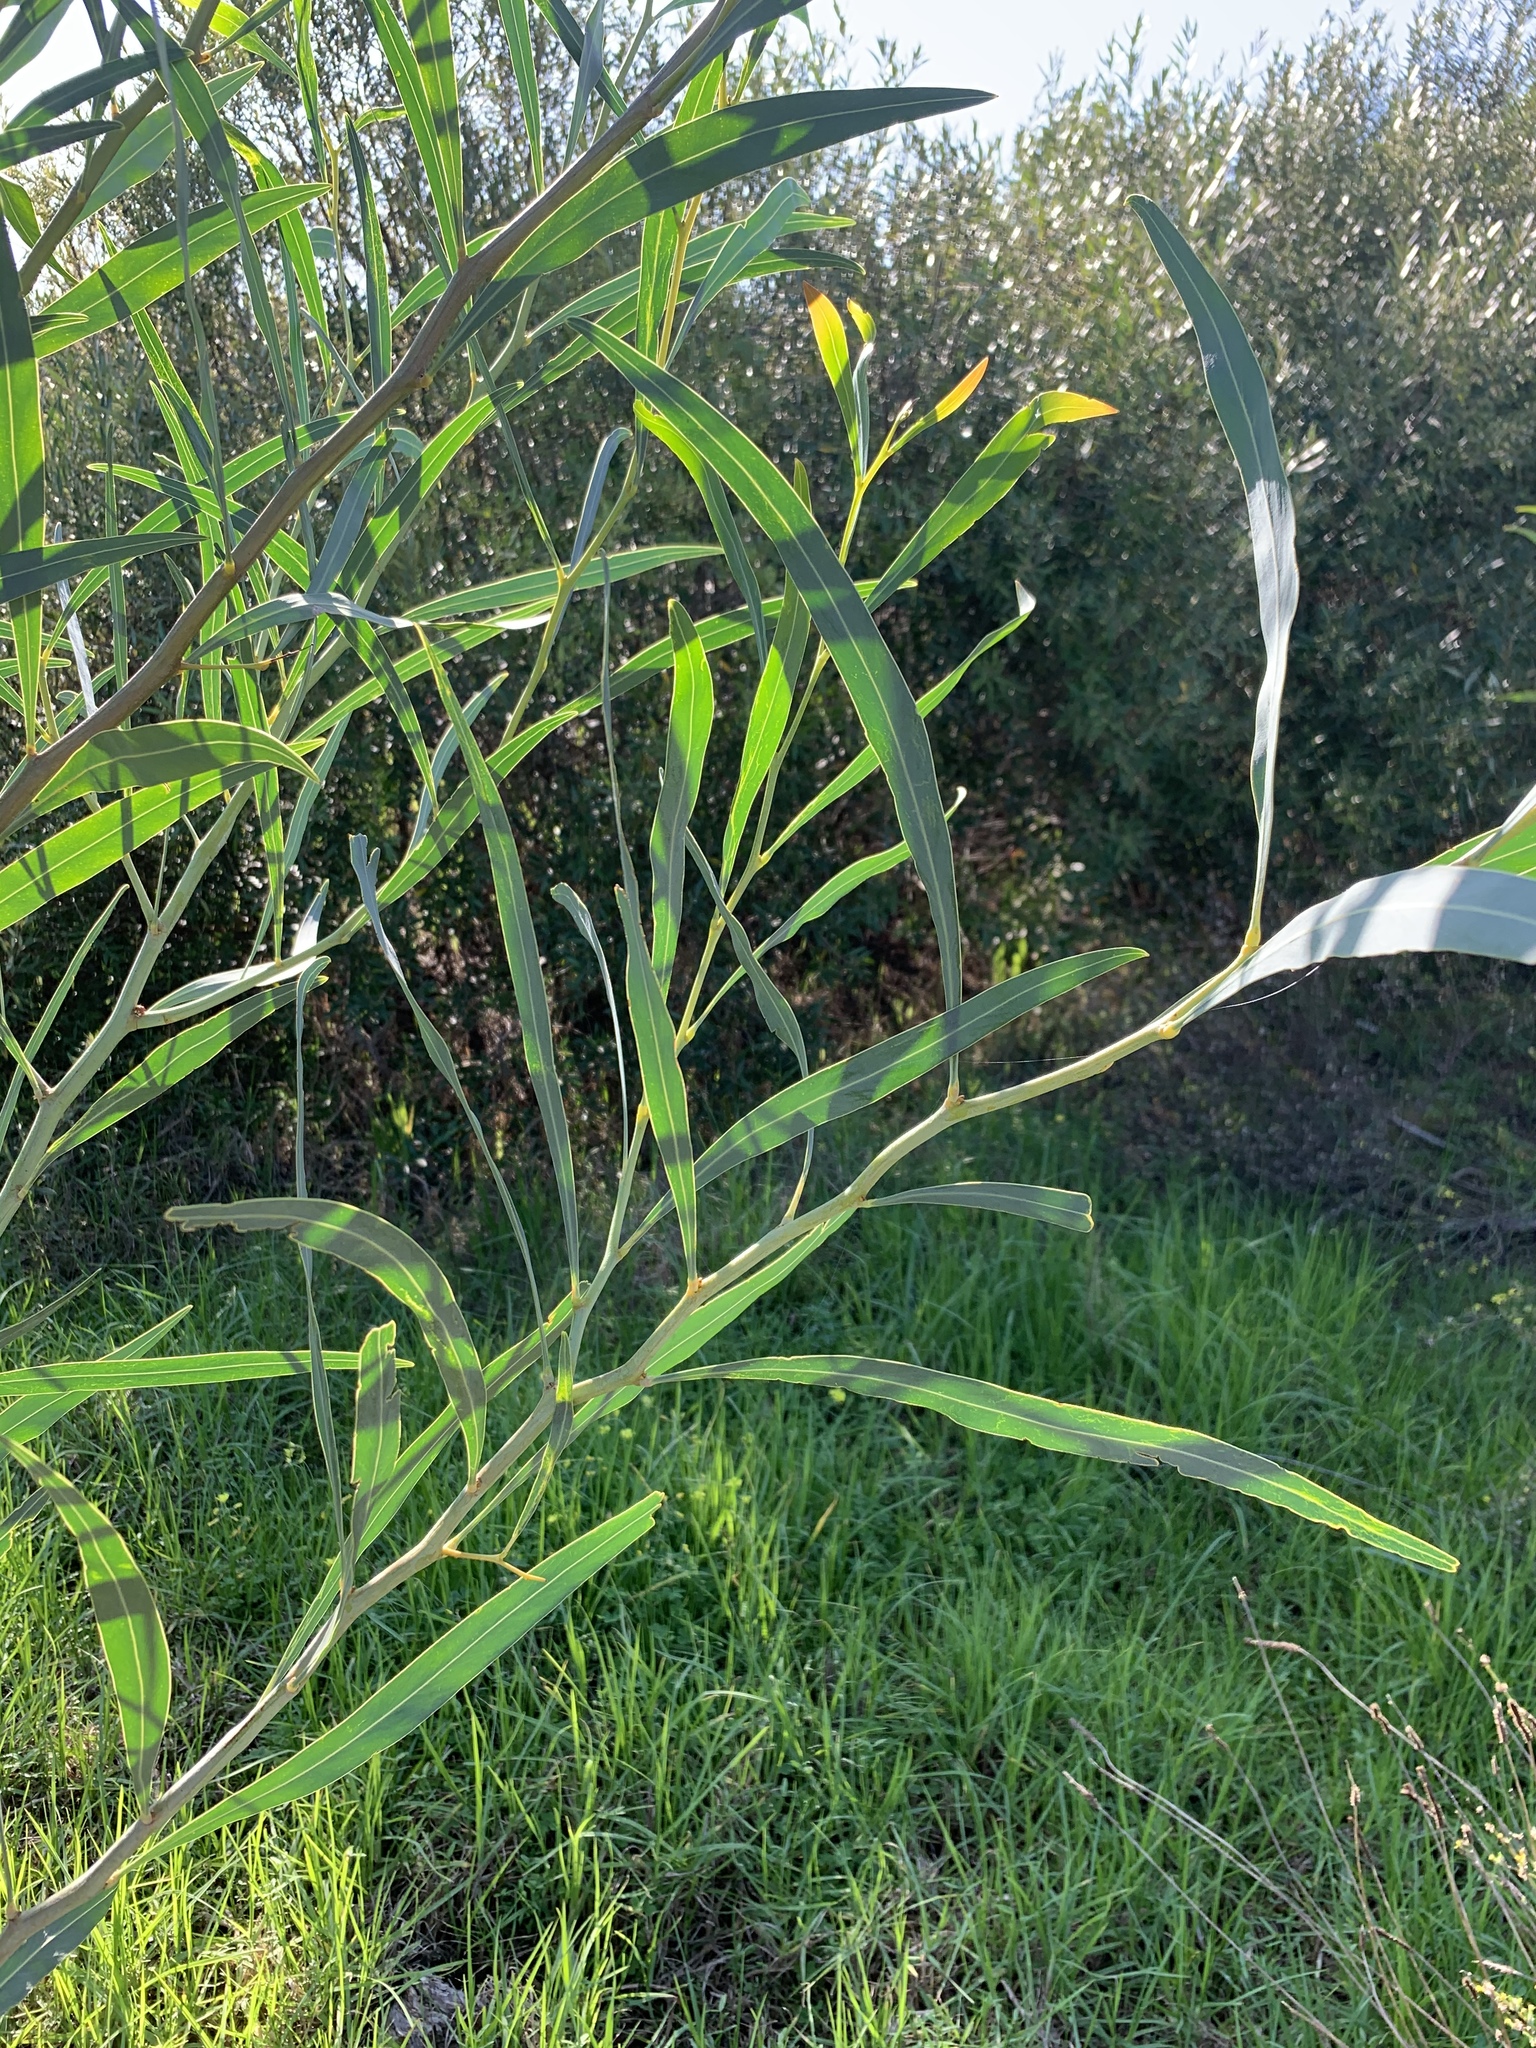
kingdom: Plantae
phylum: Tracheophyta
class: Magnoliopsida
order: Fabales
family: Fabaceae
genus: Acacia
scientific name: Acacia saligna
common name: Orange wattle
